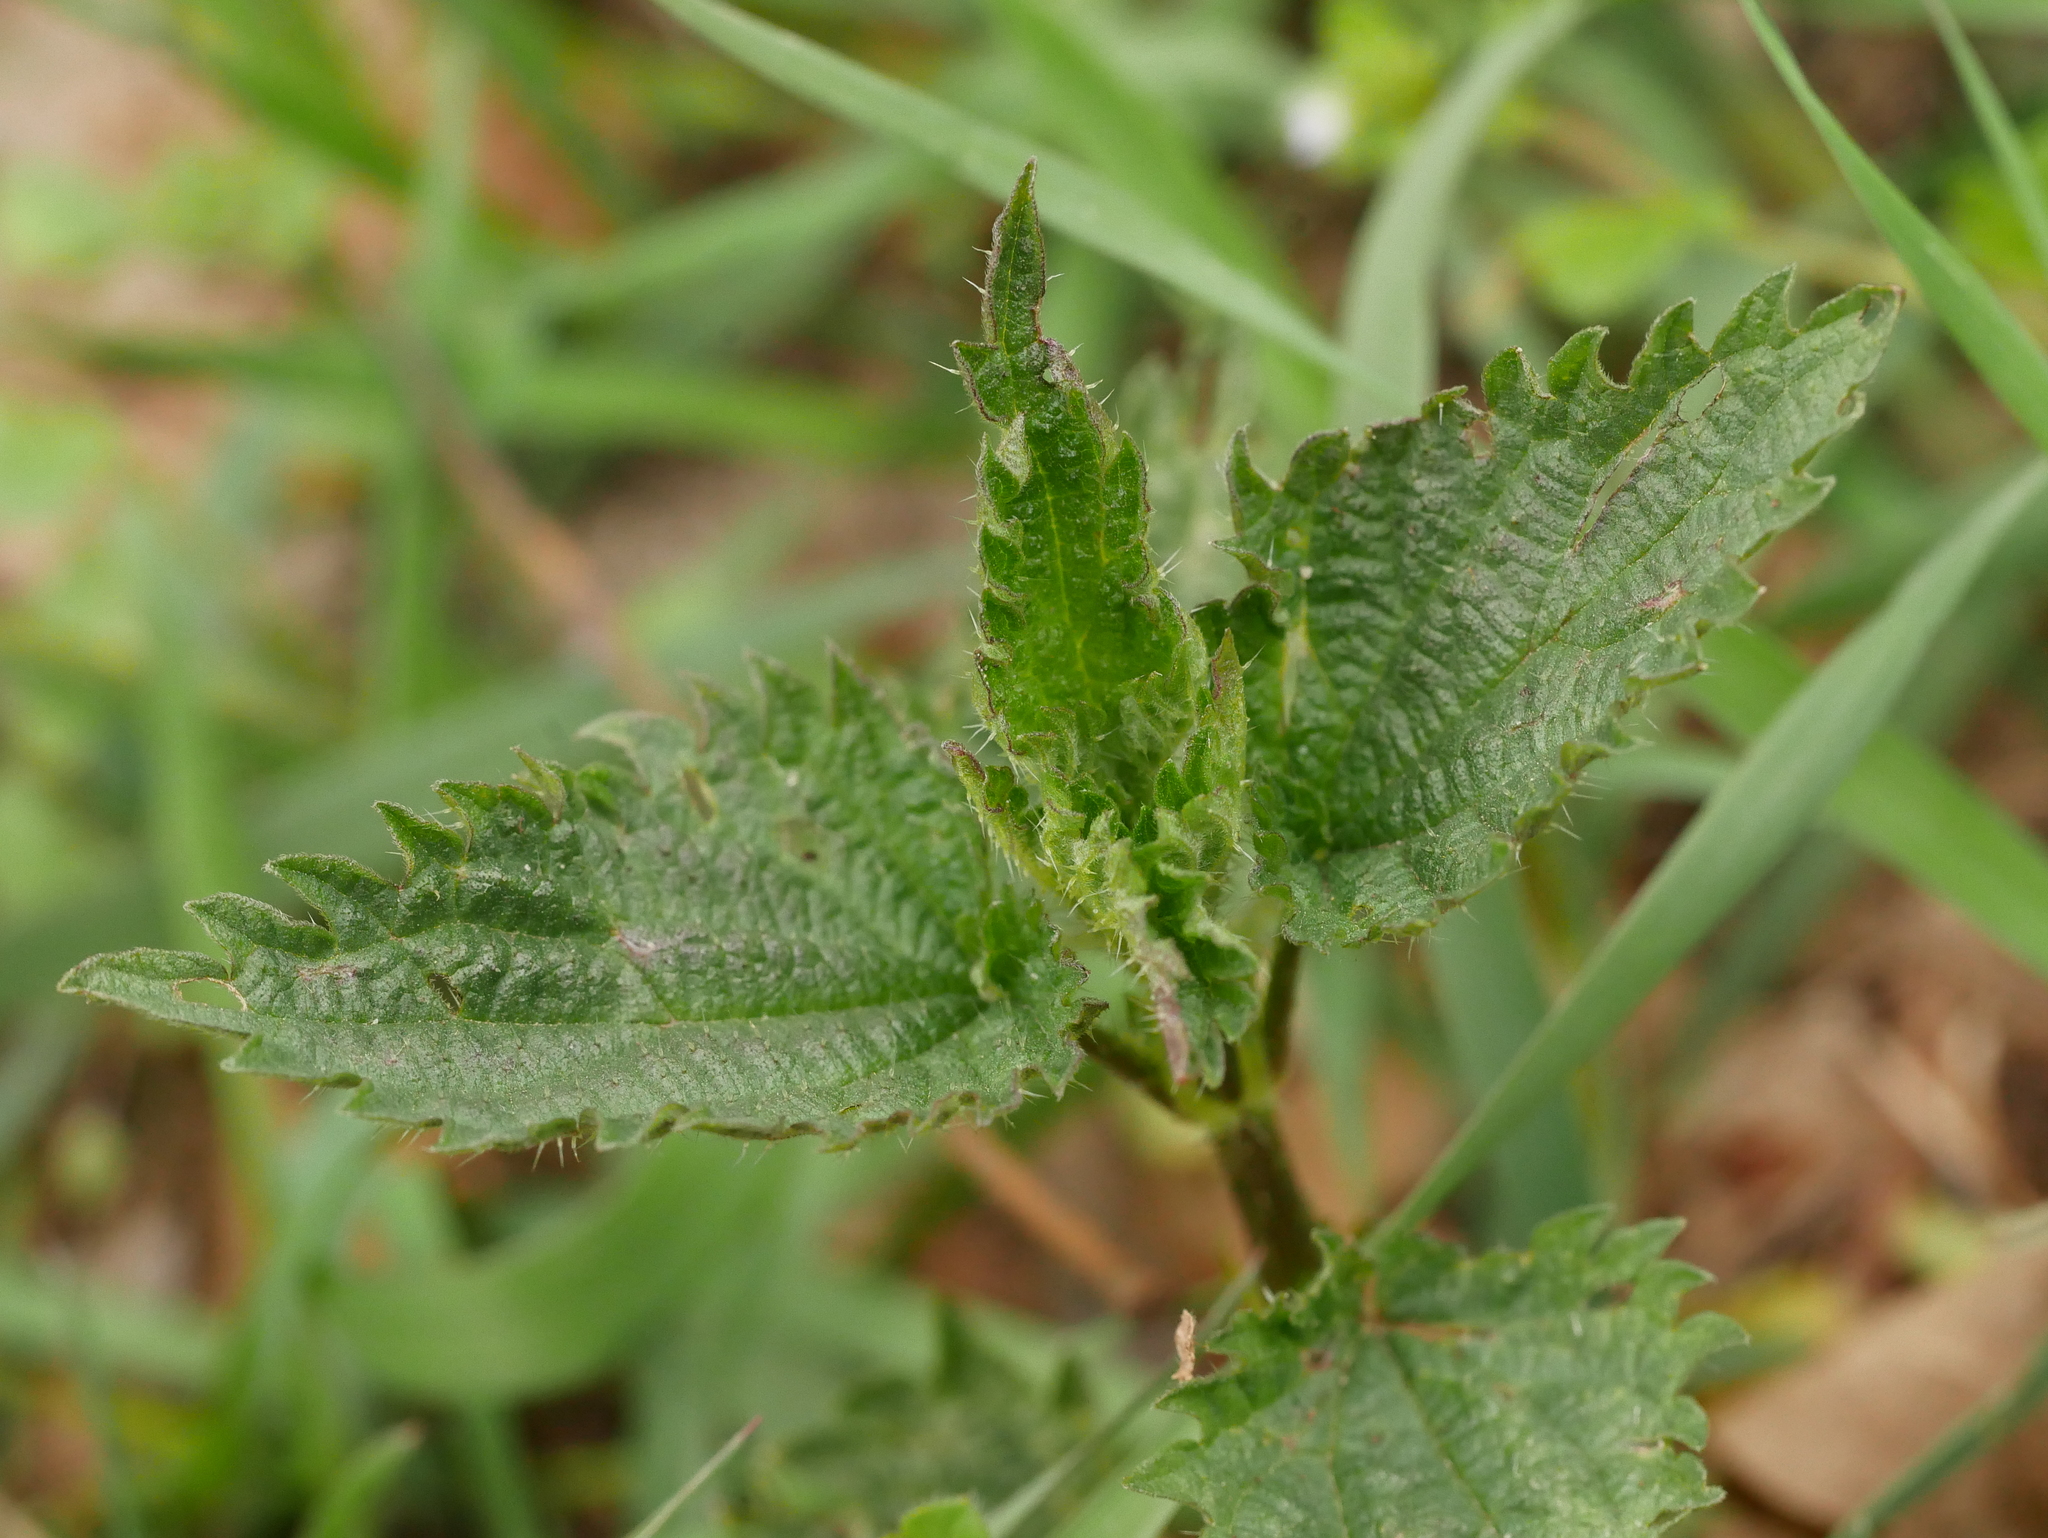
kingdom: Plantae
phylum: Tracheophyta
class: Magnoliopsida
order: Rosales
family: Urticaceae
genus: Urtica
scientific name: Urtica dioica
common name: Common nettle
